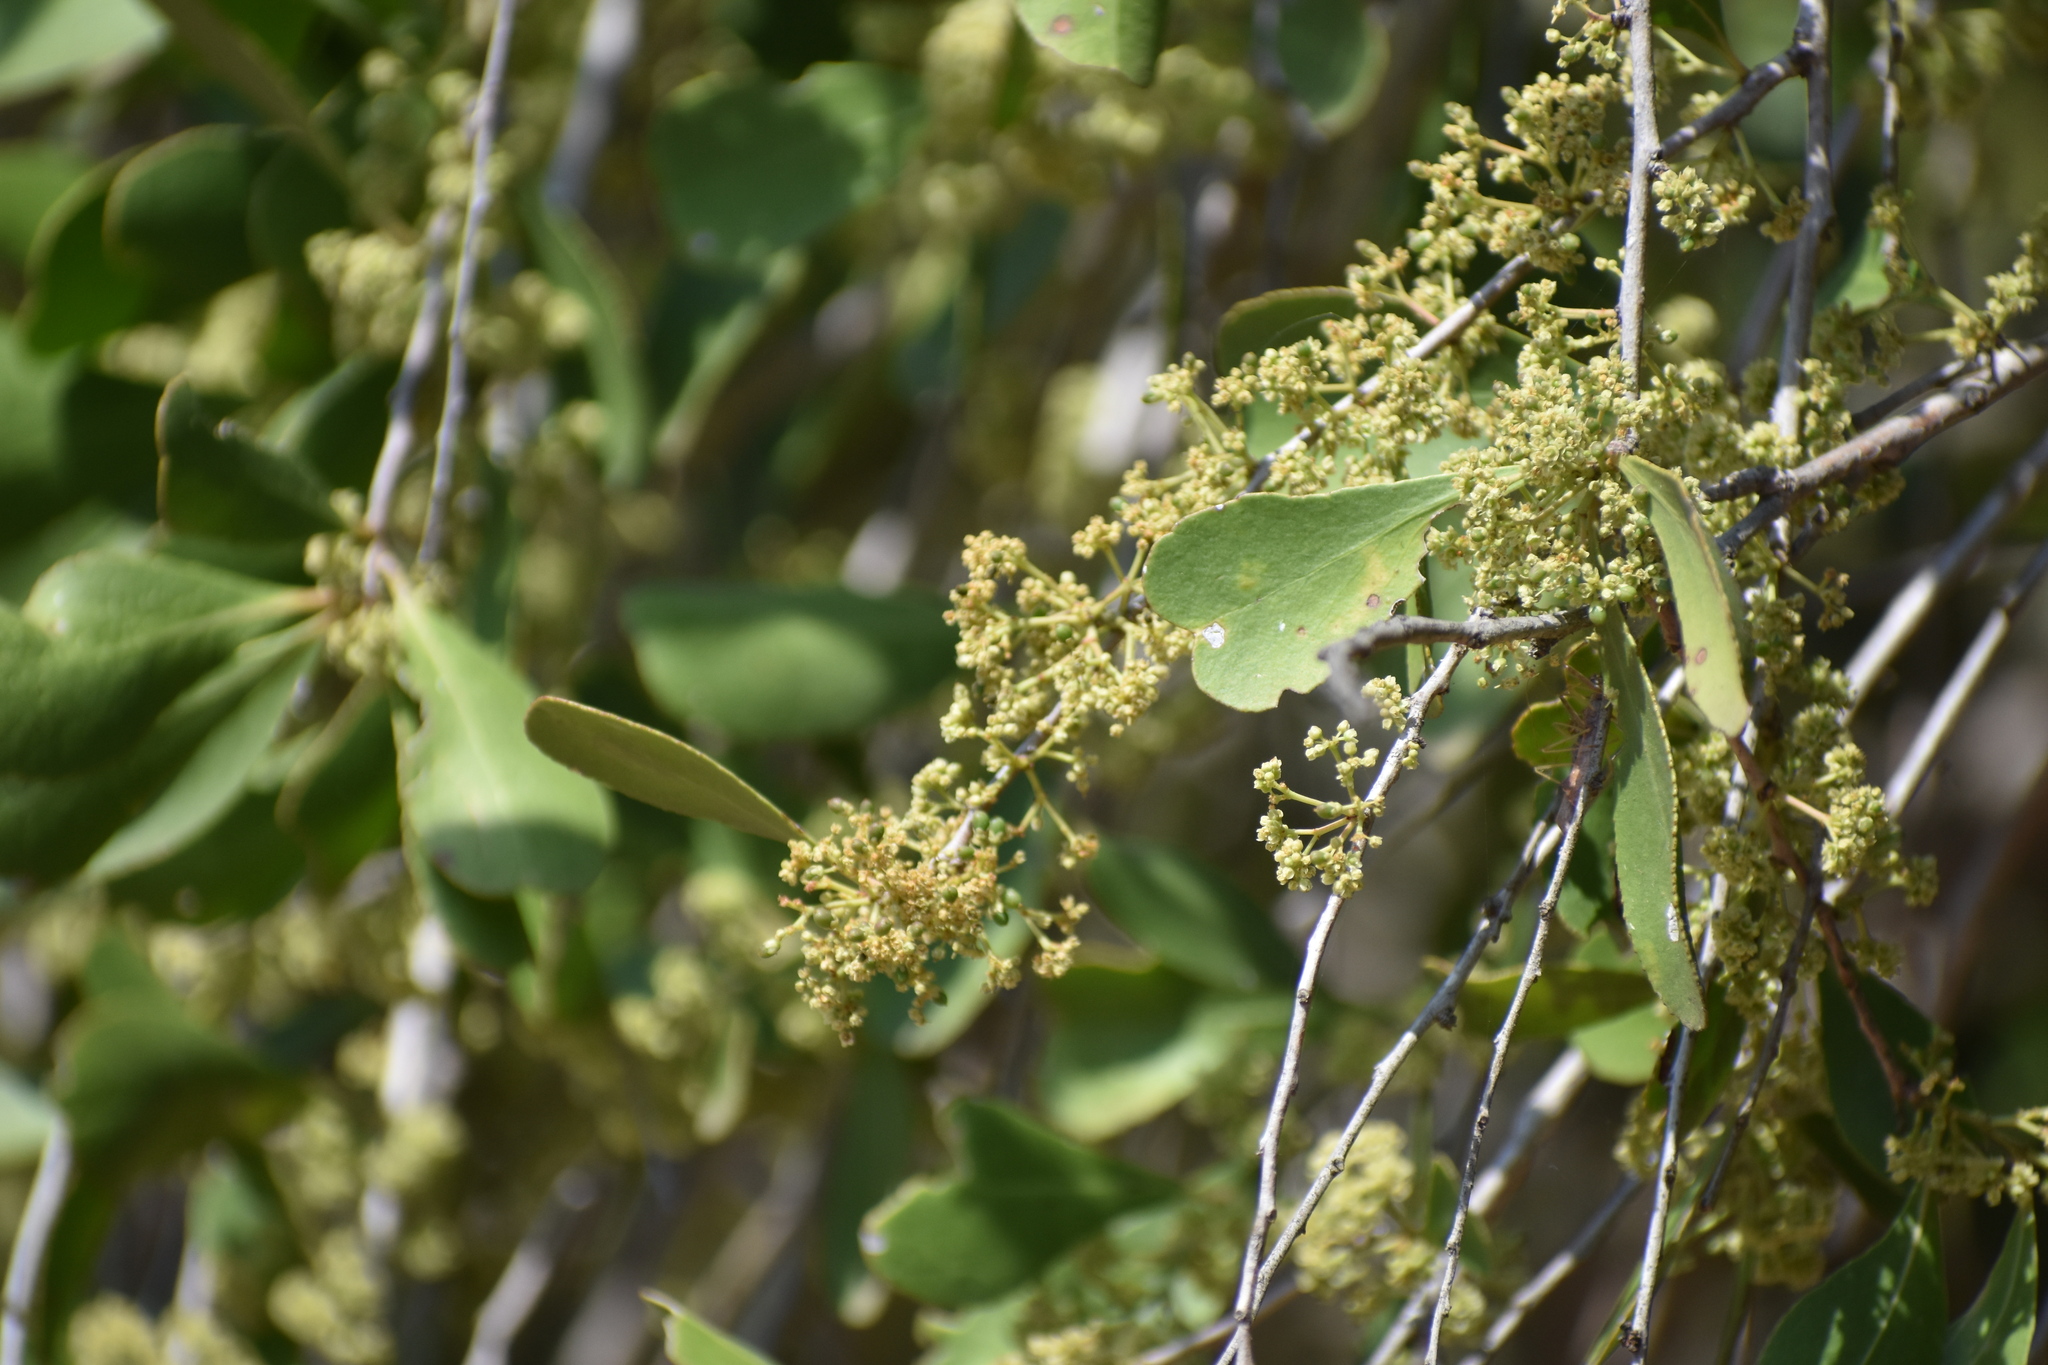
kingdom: Plantae
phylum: Tracheophyta
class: Magnoliopsida
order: Celastrales
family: Celastraceae
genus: Gymnosporia
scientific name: Gymnosporia senegalensis
